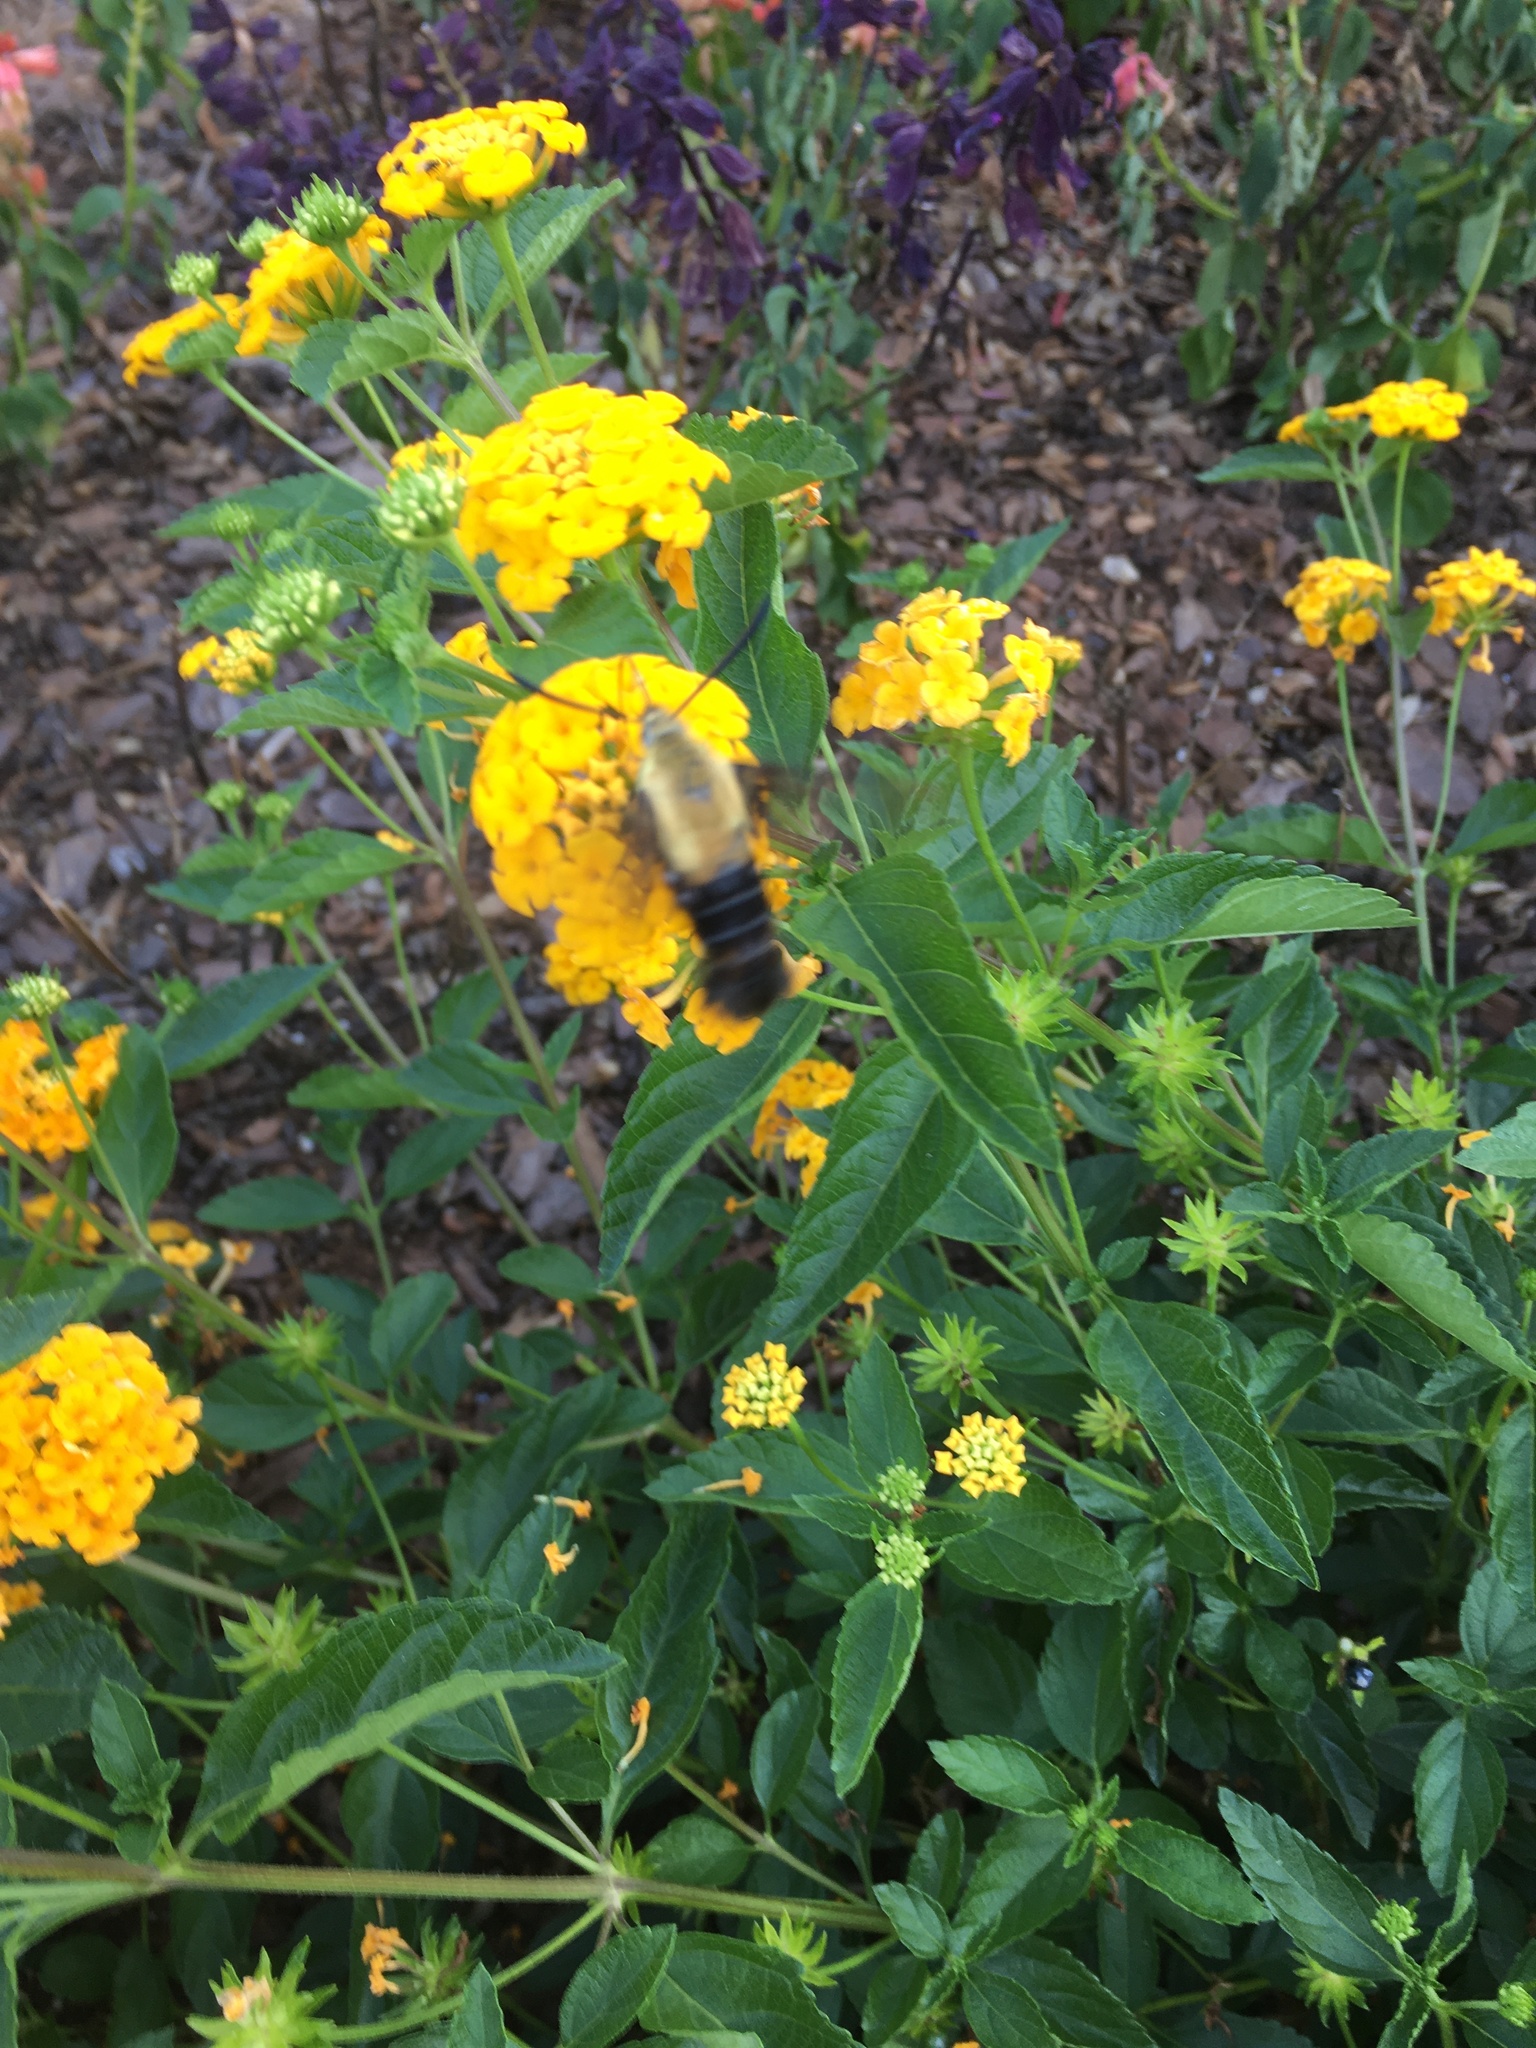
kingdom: Animalia
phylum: Arthropoda
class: Insecta
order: Lepidoptera
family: Sphingidae
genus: Hemaris
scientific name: Hemaris diffinis
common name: Bumblebee moth
